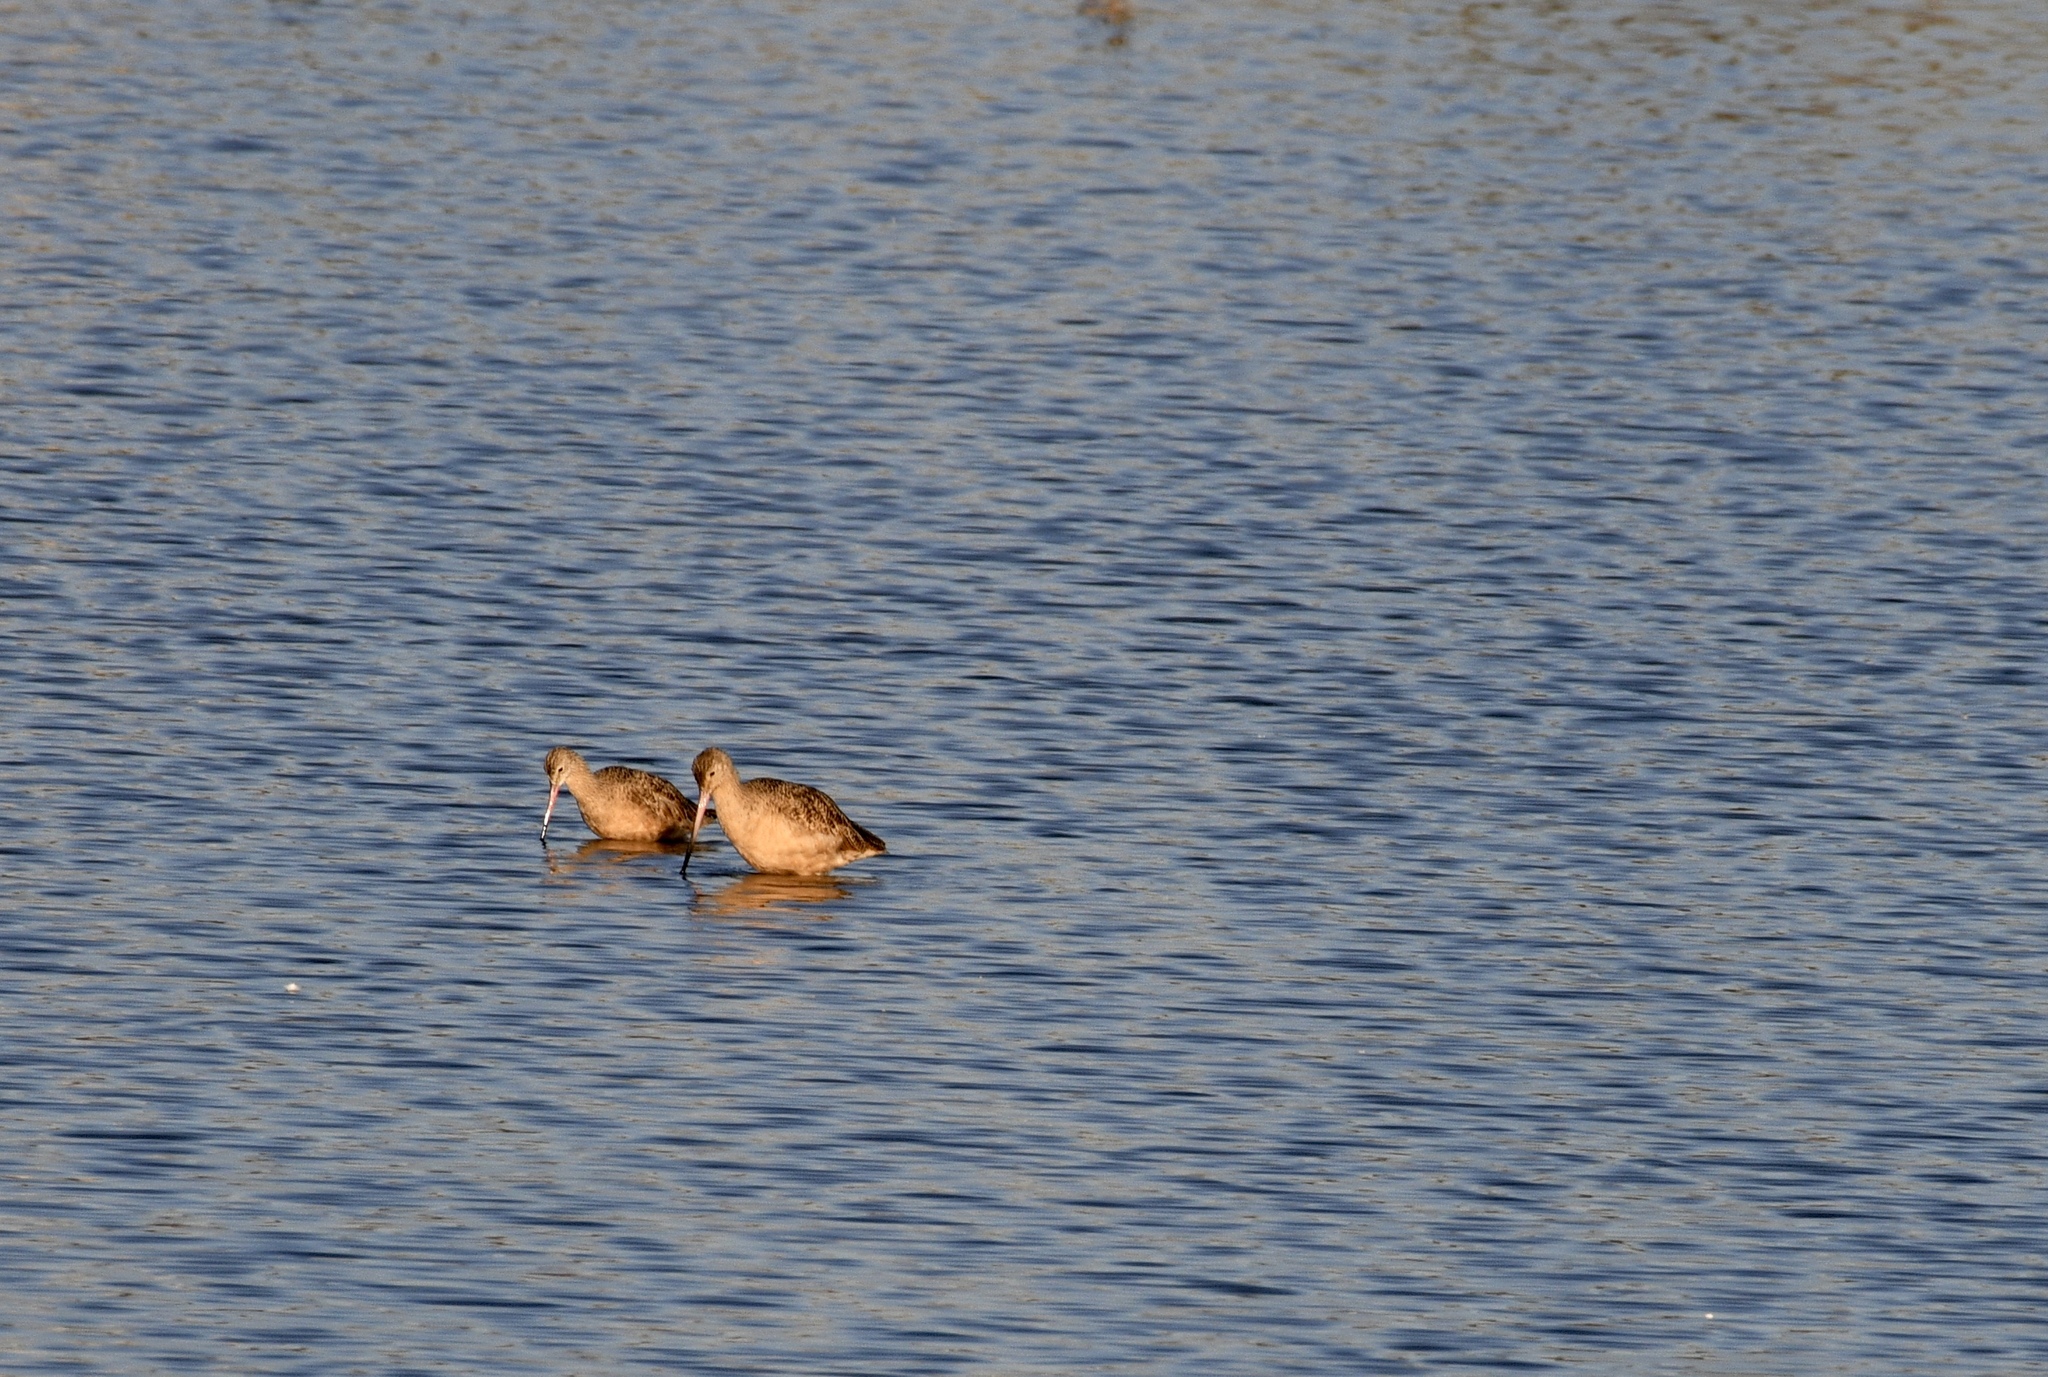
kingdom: Animalia
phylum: Chordata
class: Aves
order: Charadriiformes
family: Scolopacidae
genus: Limosa
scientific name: Limosa fedoa
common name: Marbled godwit
